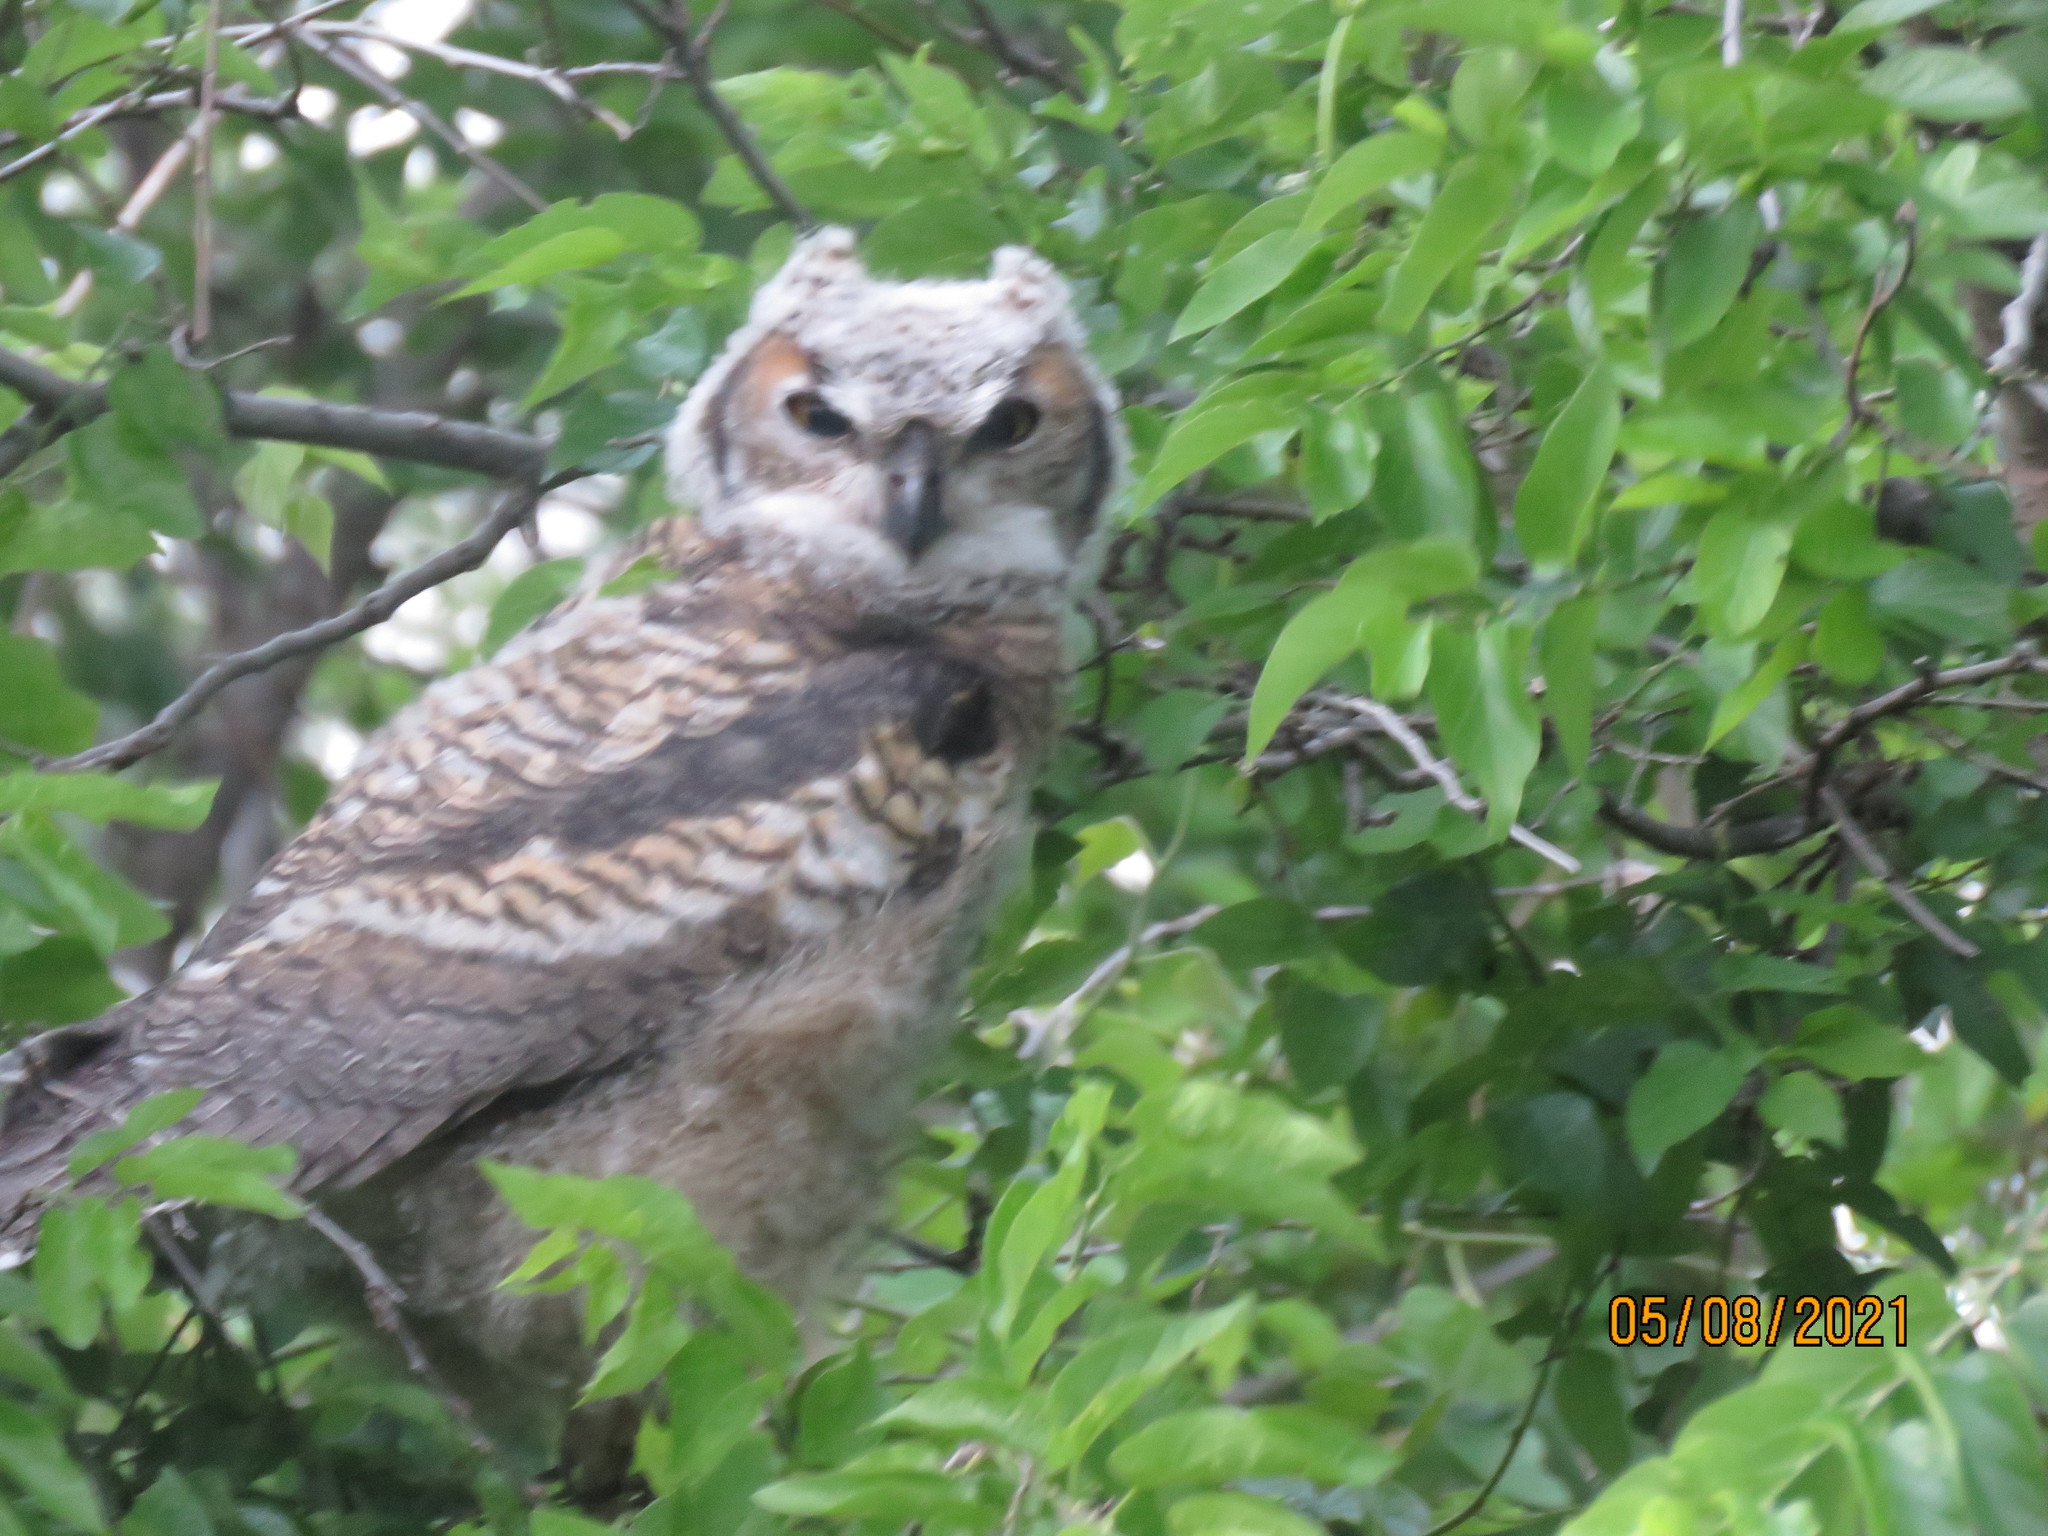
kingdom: Animalia
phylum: Chordata
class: Aves
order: Strigiformes
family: Strigidae
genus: Bubo
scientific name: Bubo virginianus
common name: Great horned owl
